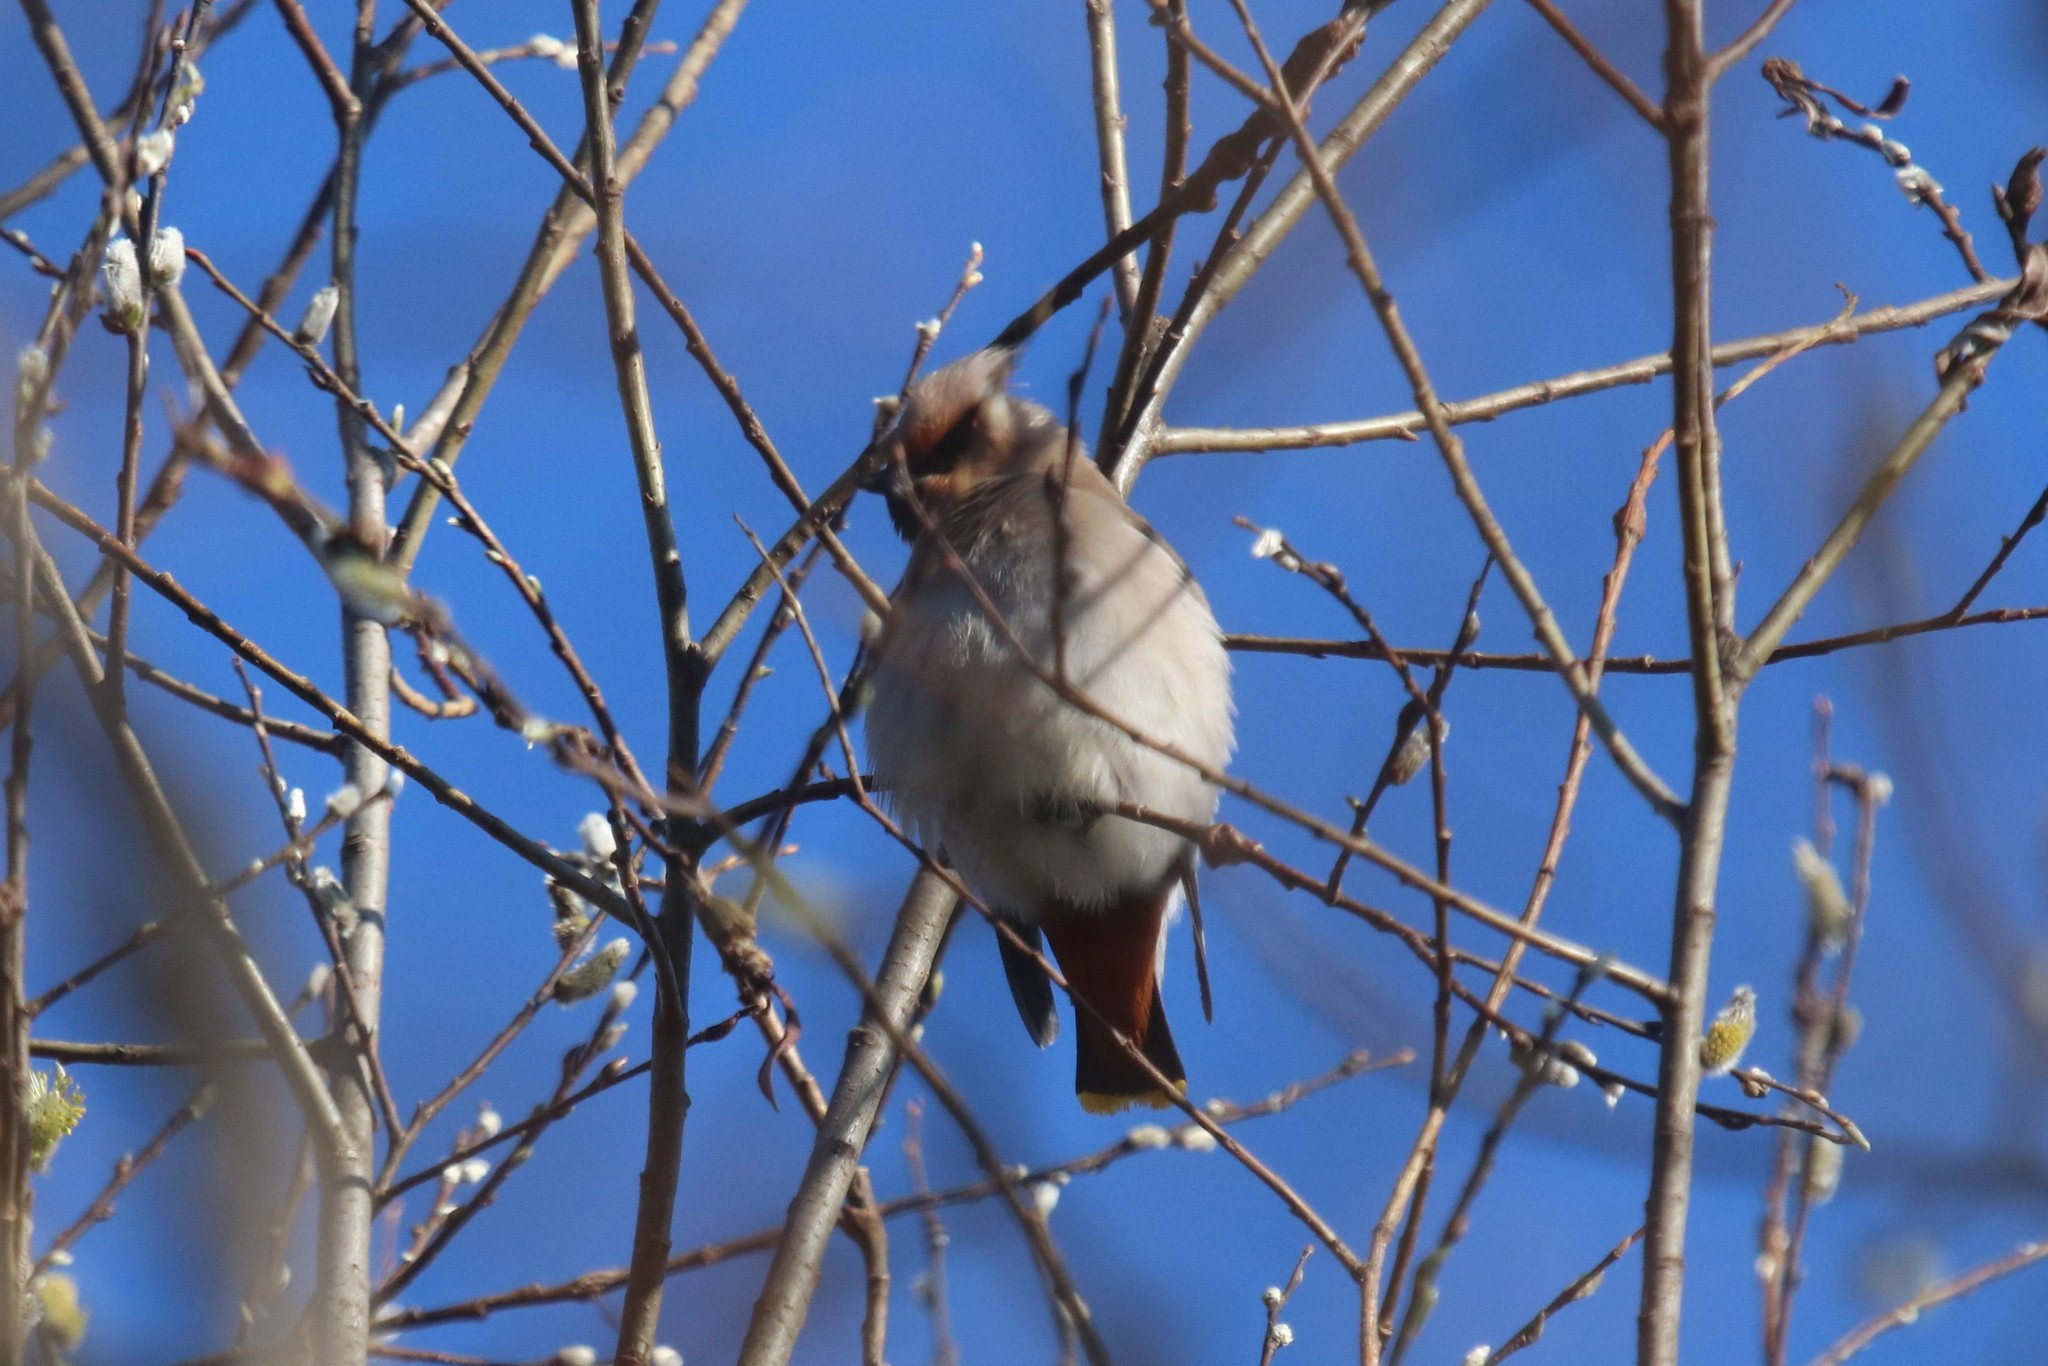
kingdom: Animalia
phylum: Chordata
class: Aves
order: Passeriformes
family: Bombycillidae
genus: Bombycilla
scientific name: Bombycilla garrulus
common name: Bohemian waxwing
